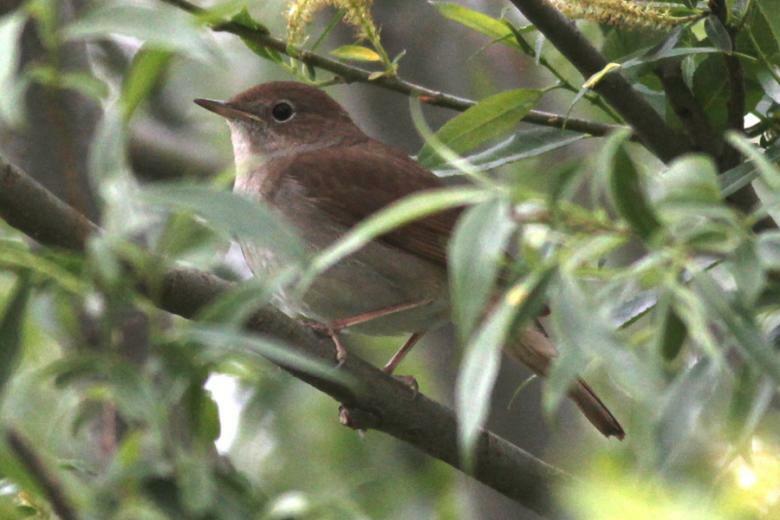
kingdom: Animalia
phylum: Chordata
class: Aves
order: Passeriformes
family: Muscicapidae
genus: Luscinia
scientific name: Luscinia megarhynchos
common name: Common nightingale
